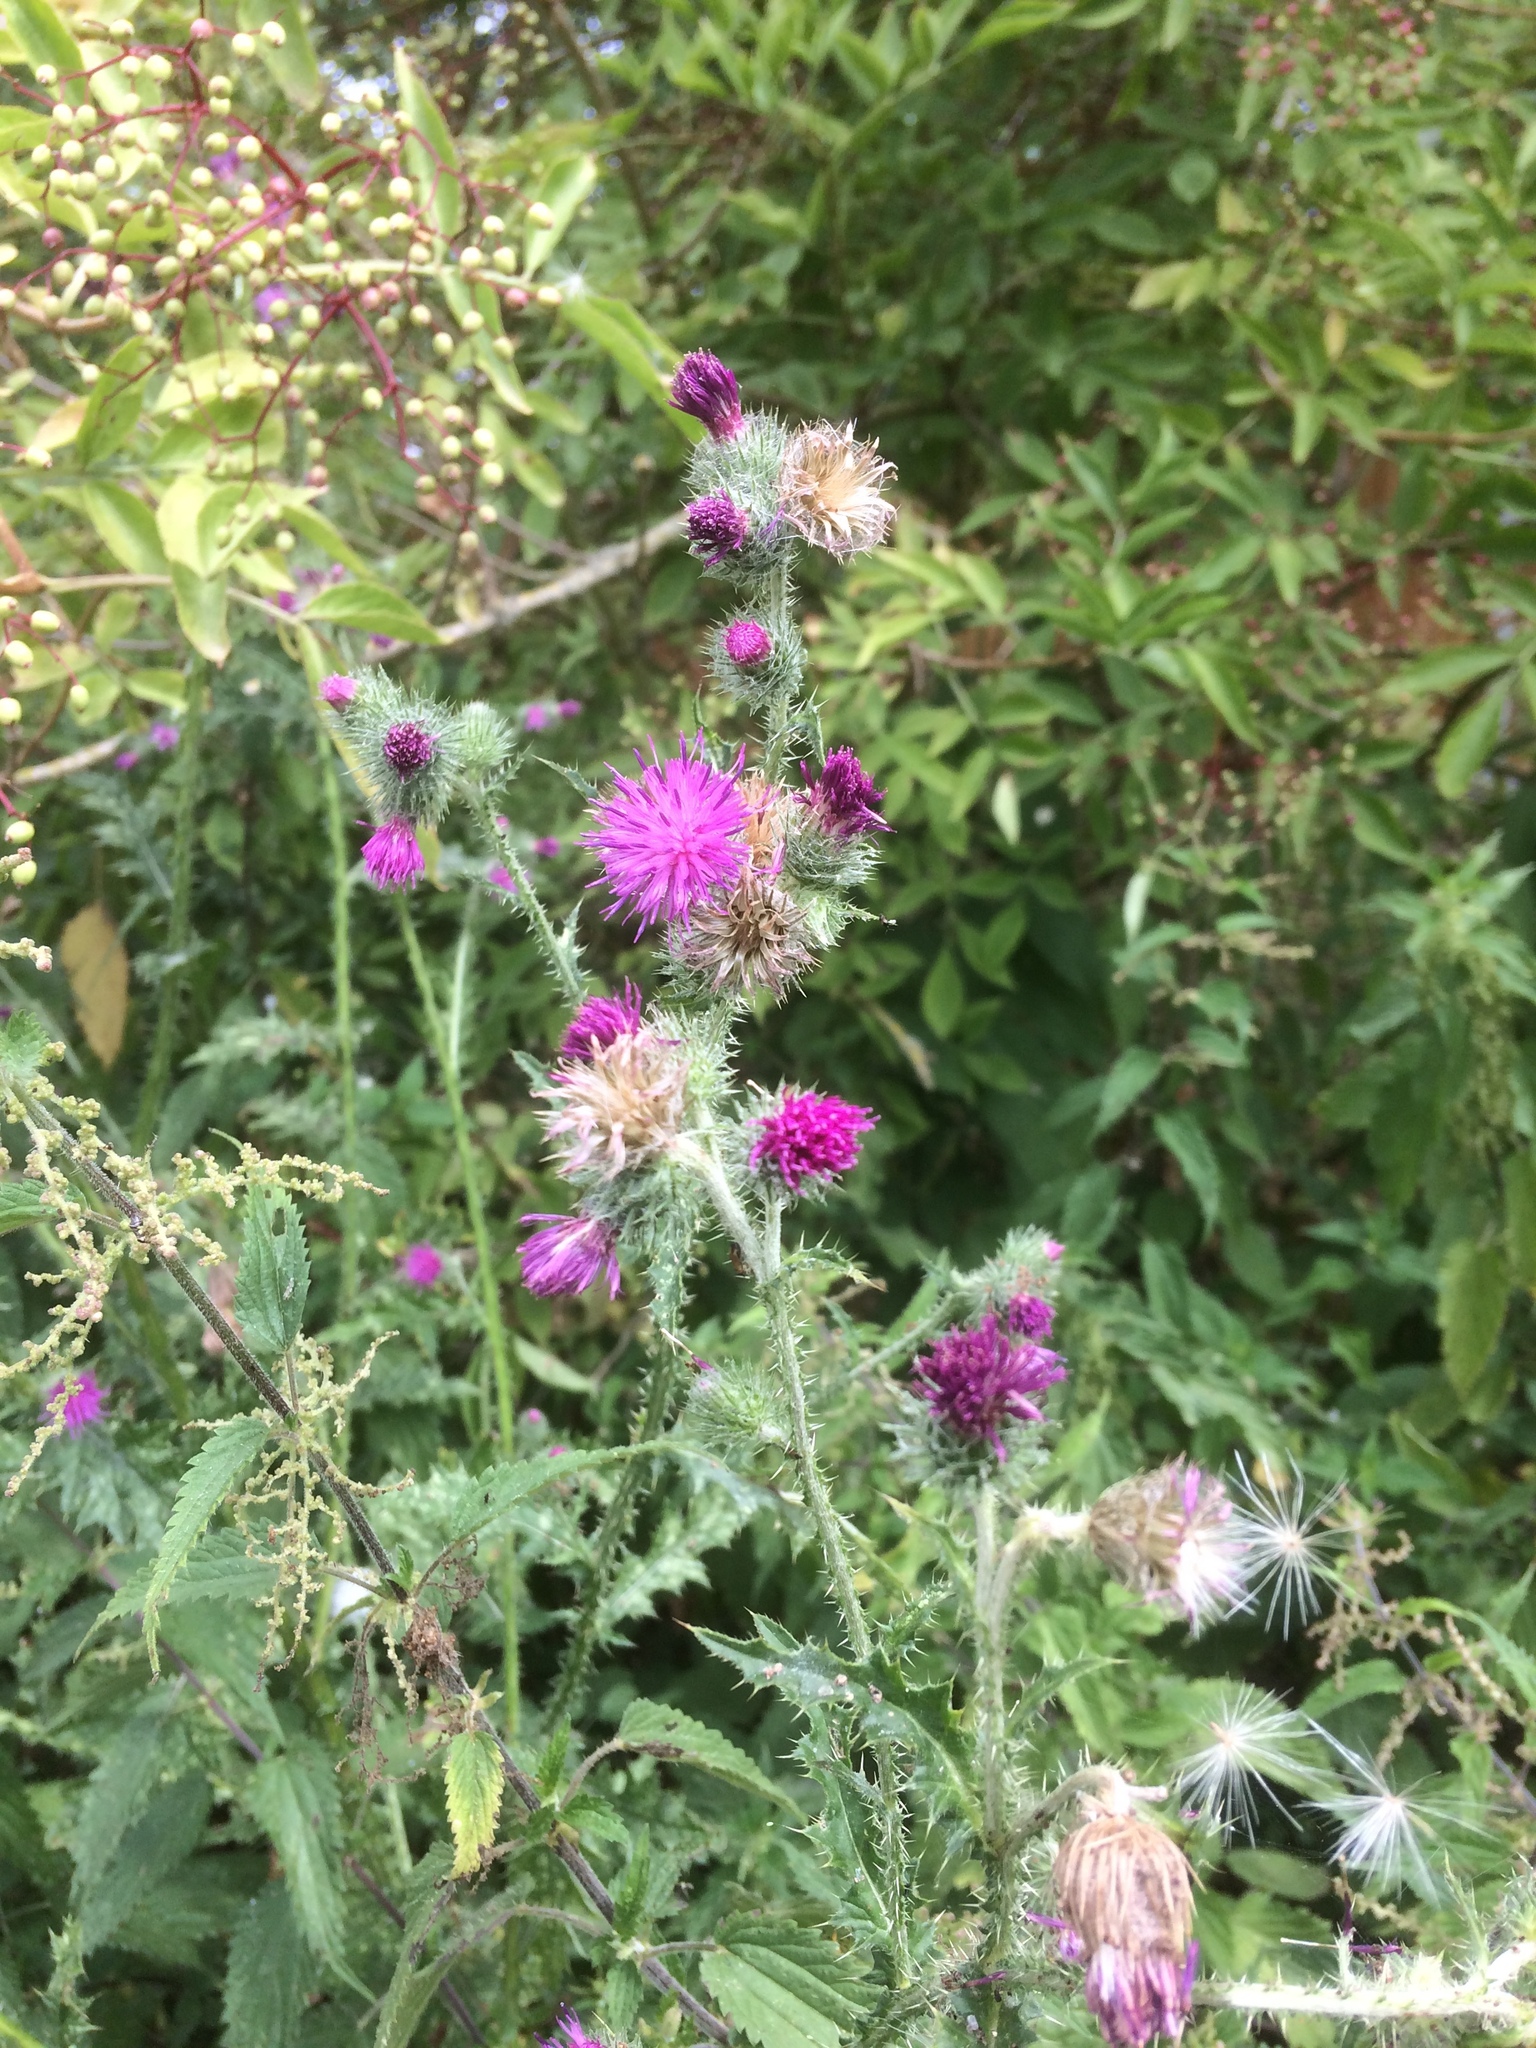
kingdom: Plantae
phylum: Tracheophyta
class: Magnoliopsida
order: Asterales
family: Asteraceae
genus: Carduus
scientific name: Carduus crispus
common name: Welted thistle
